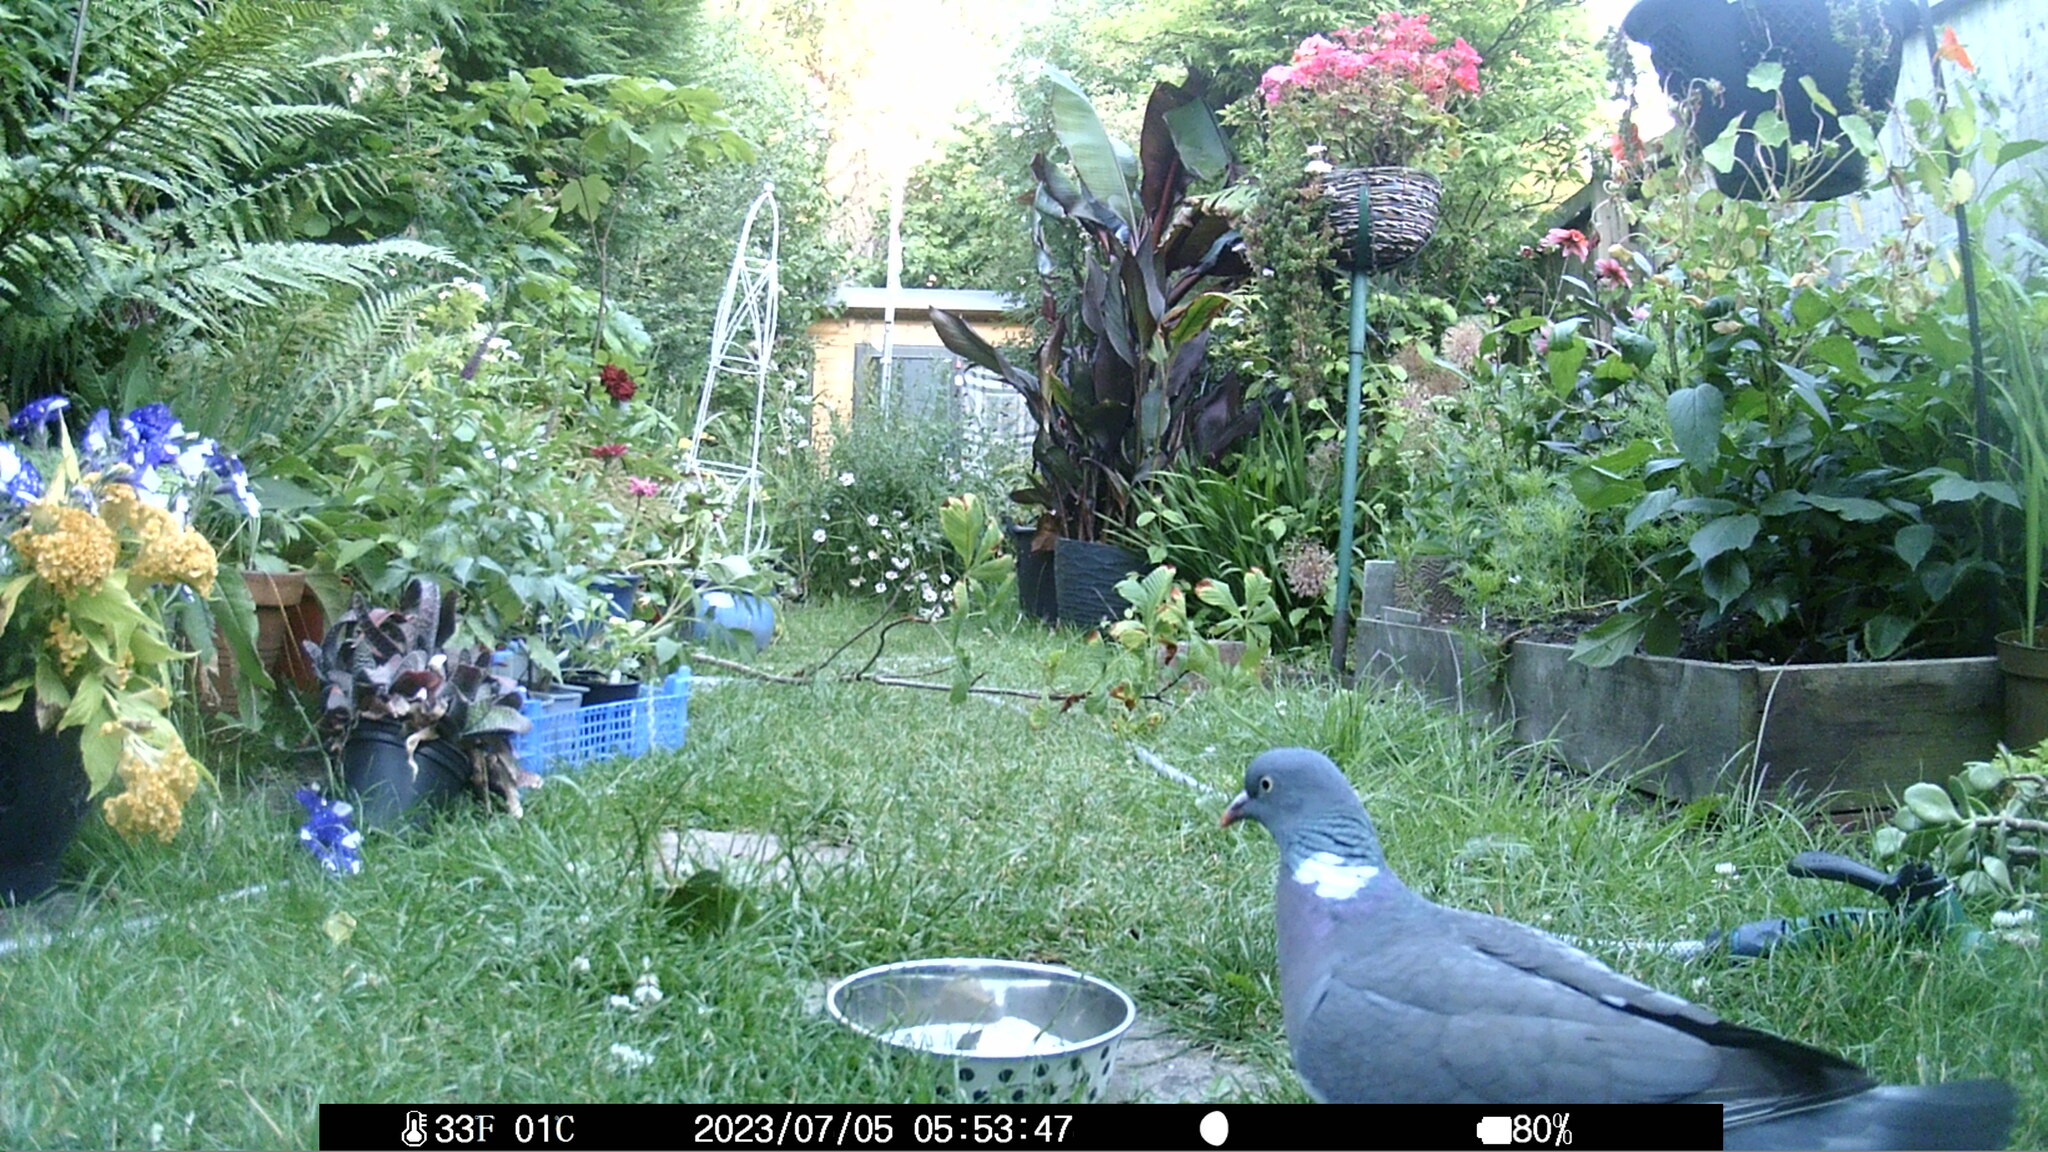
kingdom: Animalia
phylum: Chordata
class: Aves
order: Columbiformes
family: Columbidae
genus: Columba
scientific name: Columba palumbus
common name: Common wood pigeon
